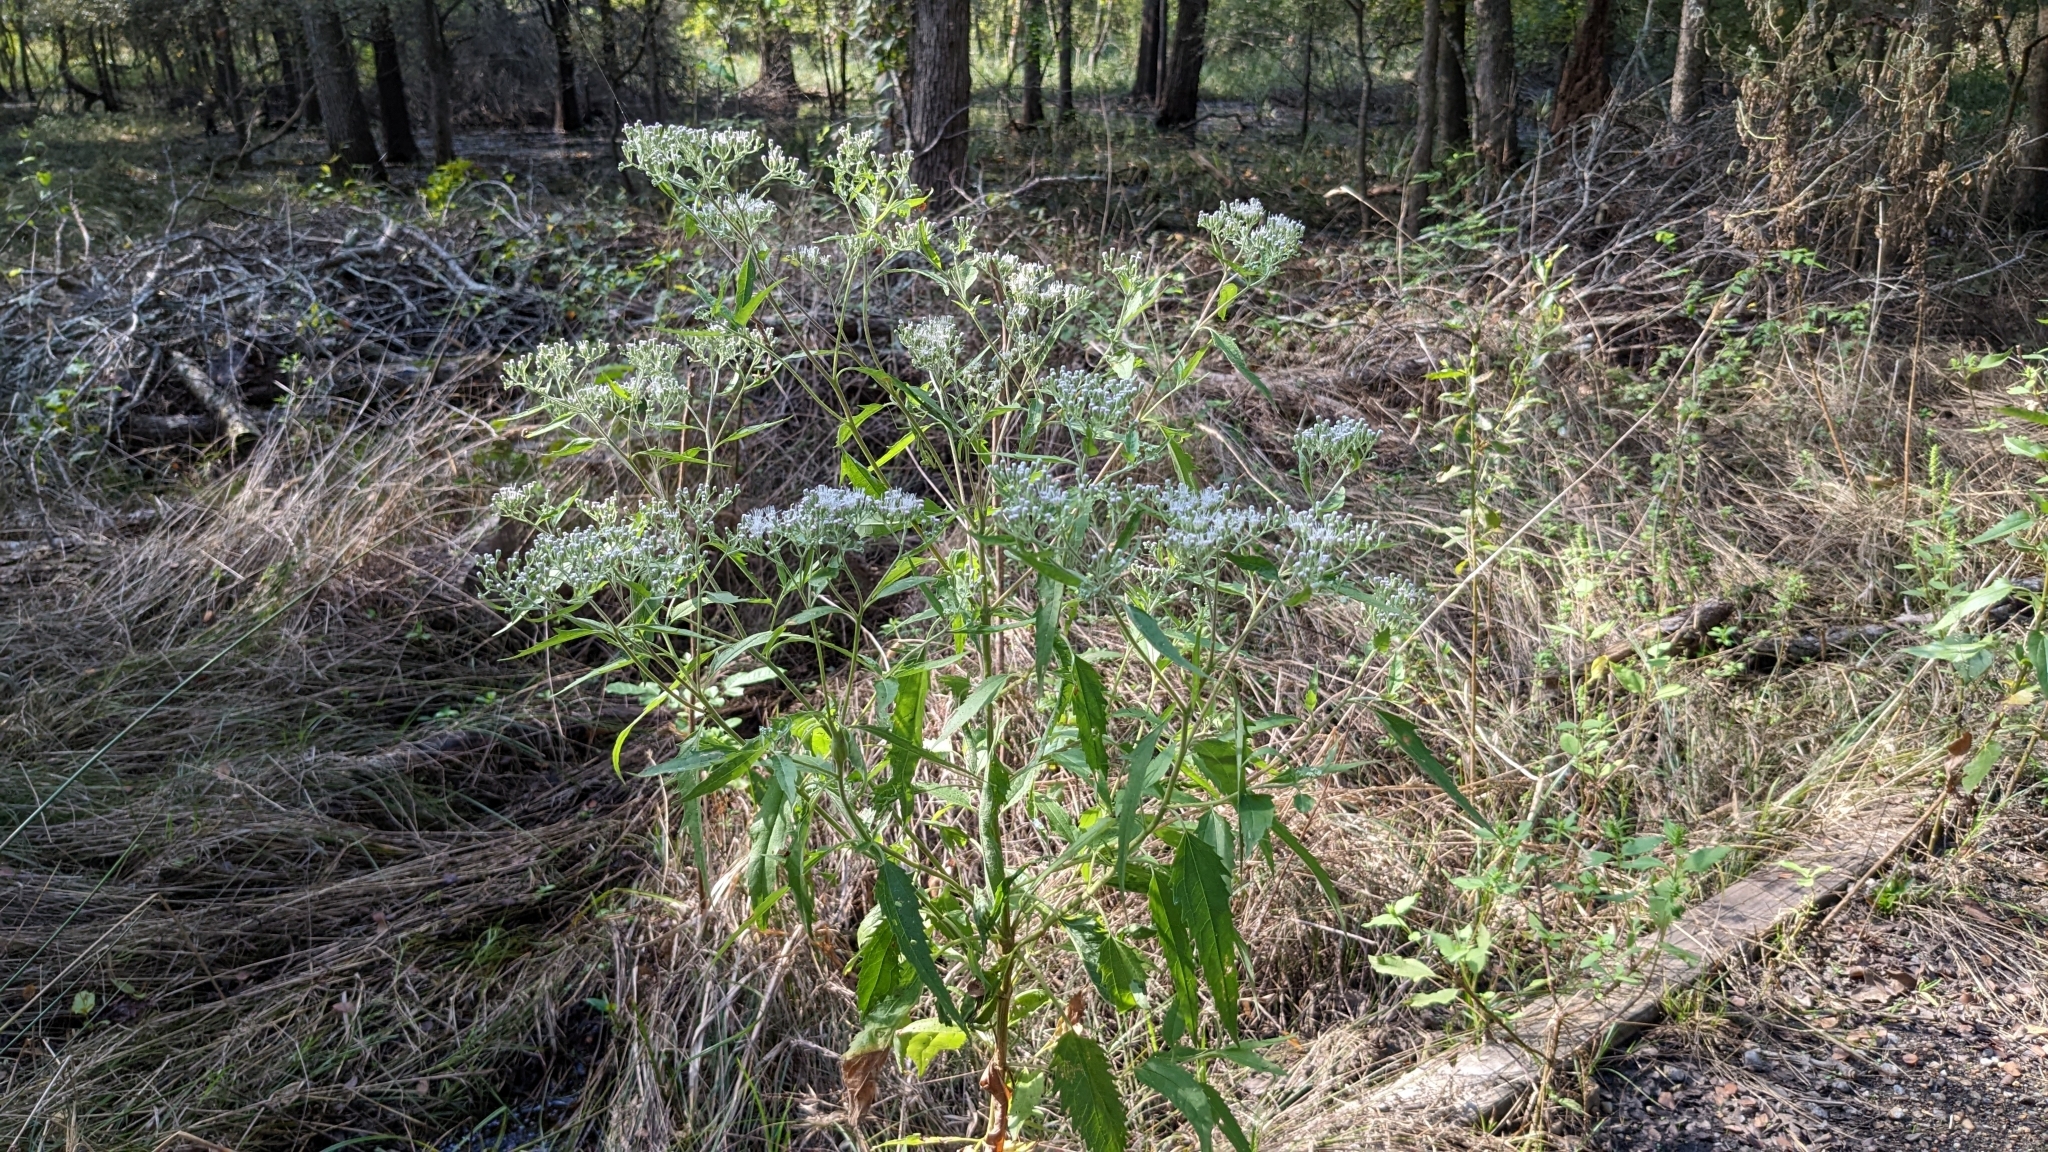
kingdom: Plantae
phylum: Tracheophyta
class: Magnoliopsida
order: Asterales
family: Asteraceae
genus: Eupatorium
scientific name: Eupatorium serotinum
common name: Late boneset
